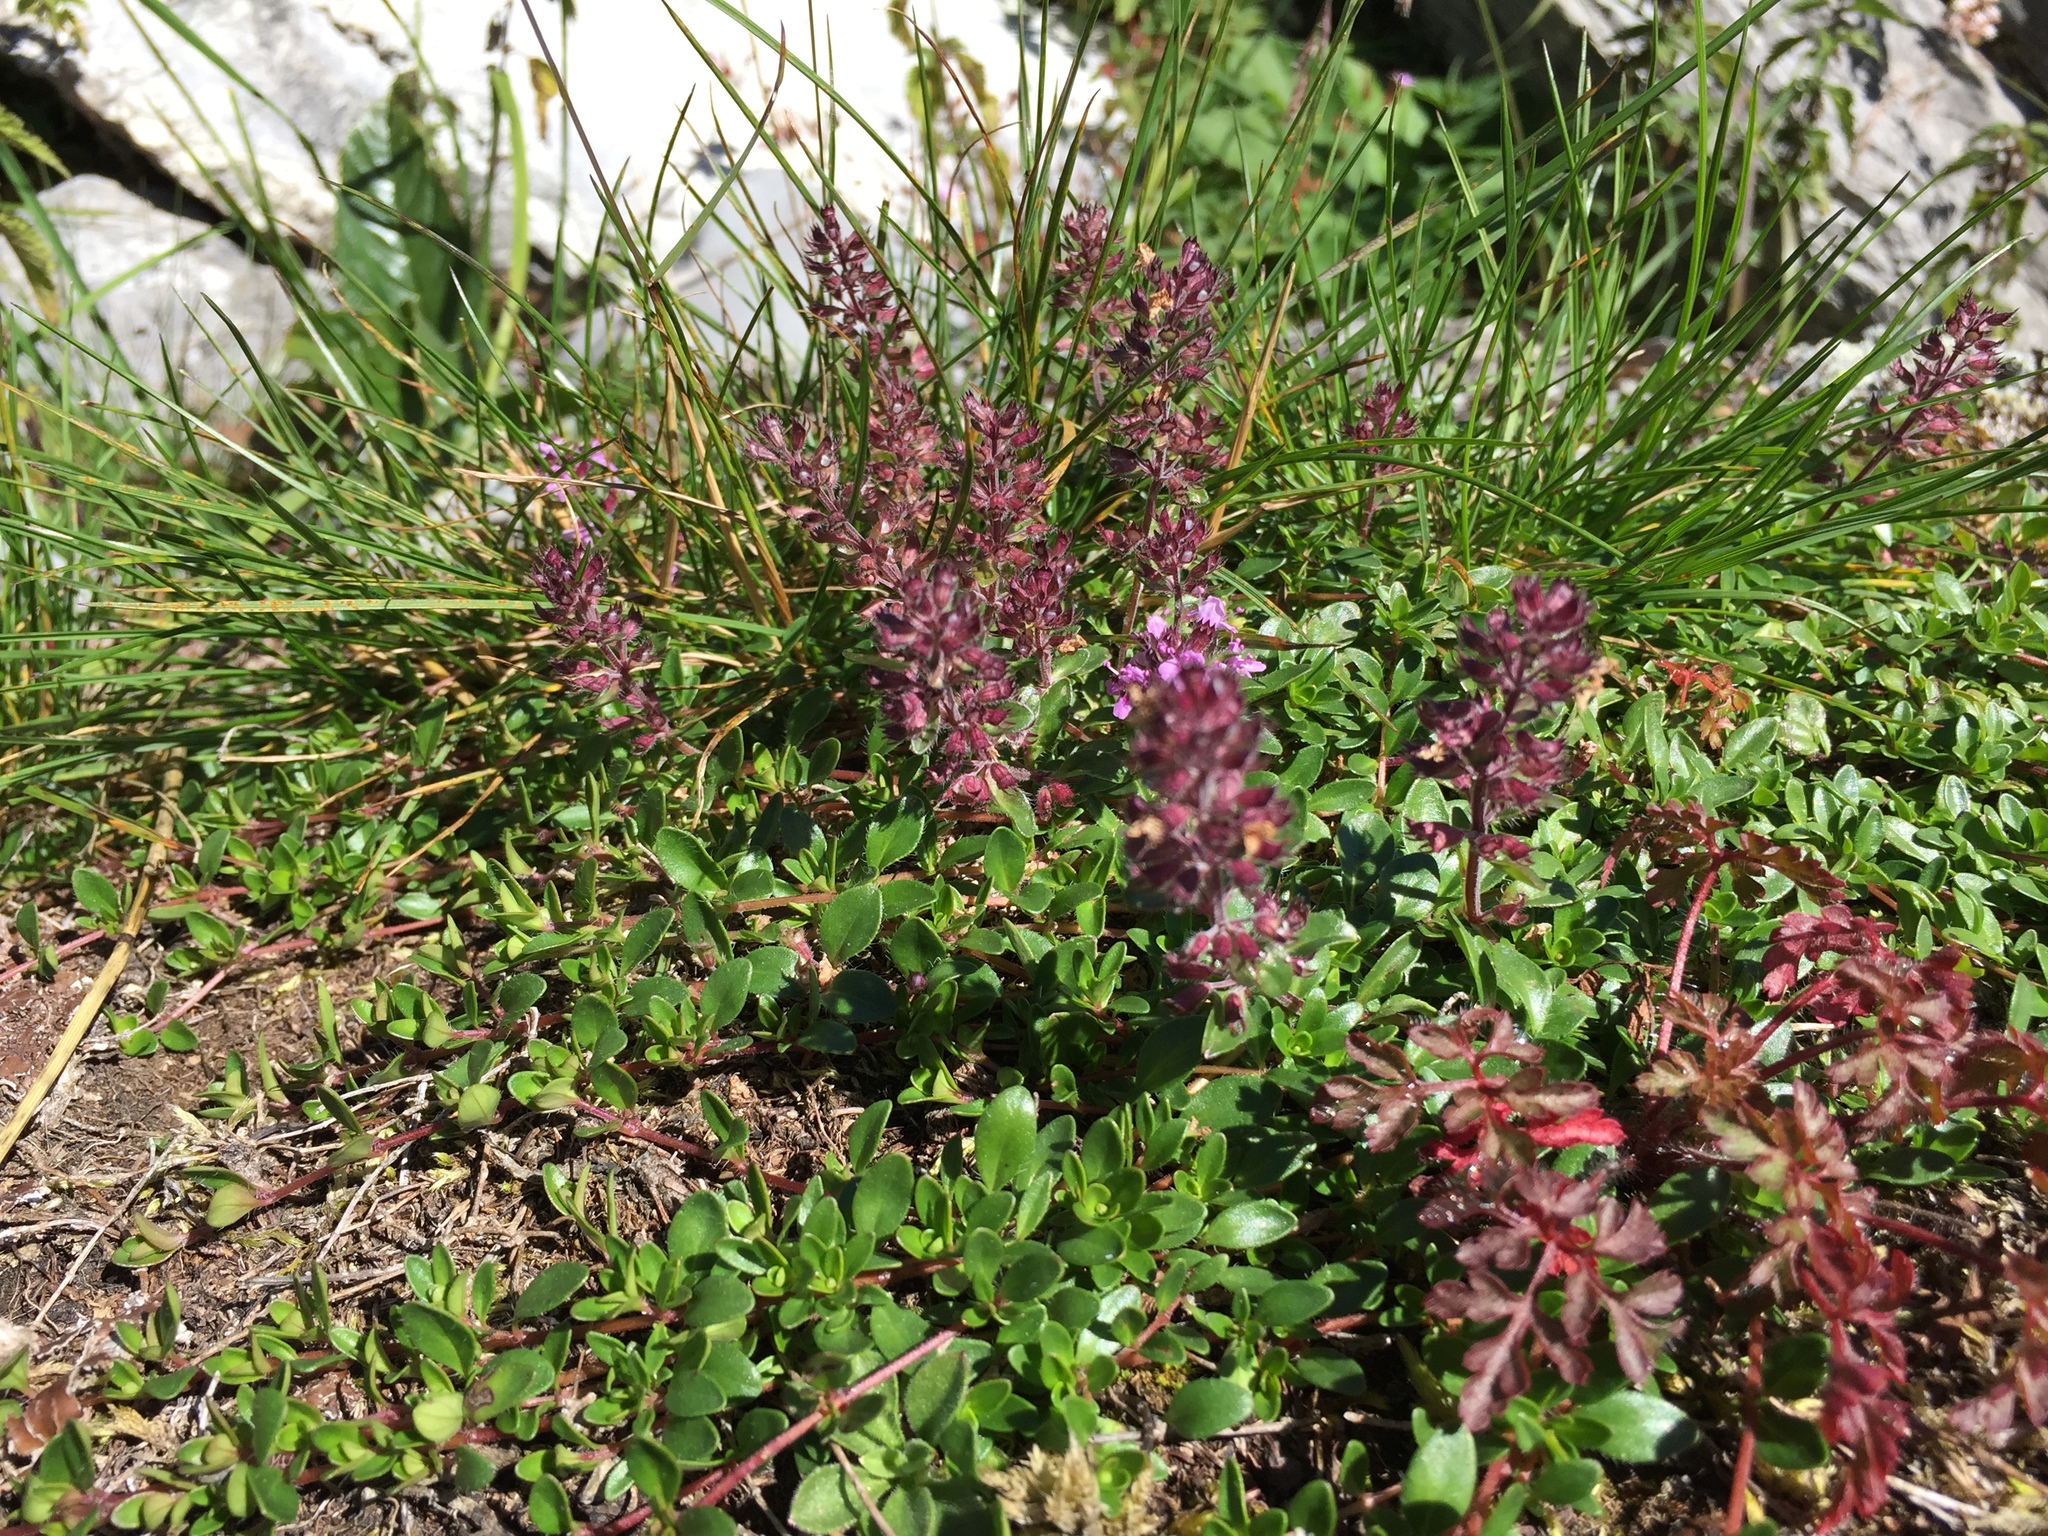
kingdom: Plantae
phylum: Tracheophyta
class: Magnoliopsida
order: Lamiales
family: Lamiaceae
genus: Thymus
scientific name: Thymus pulegioides
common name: Large thyme
